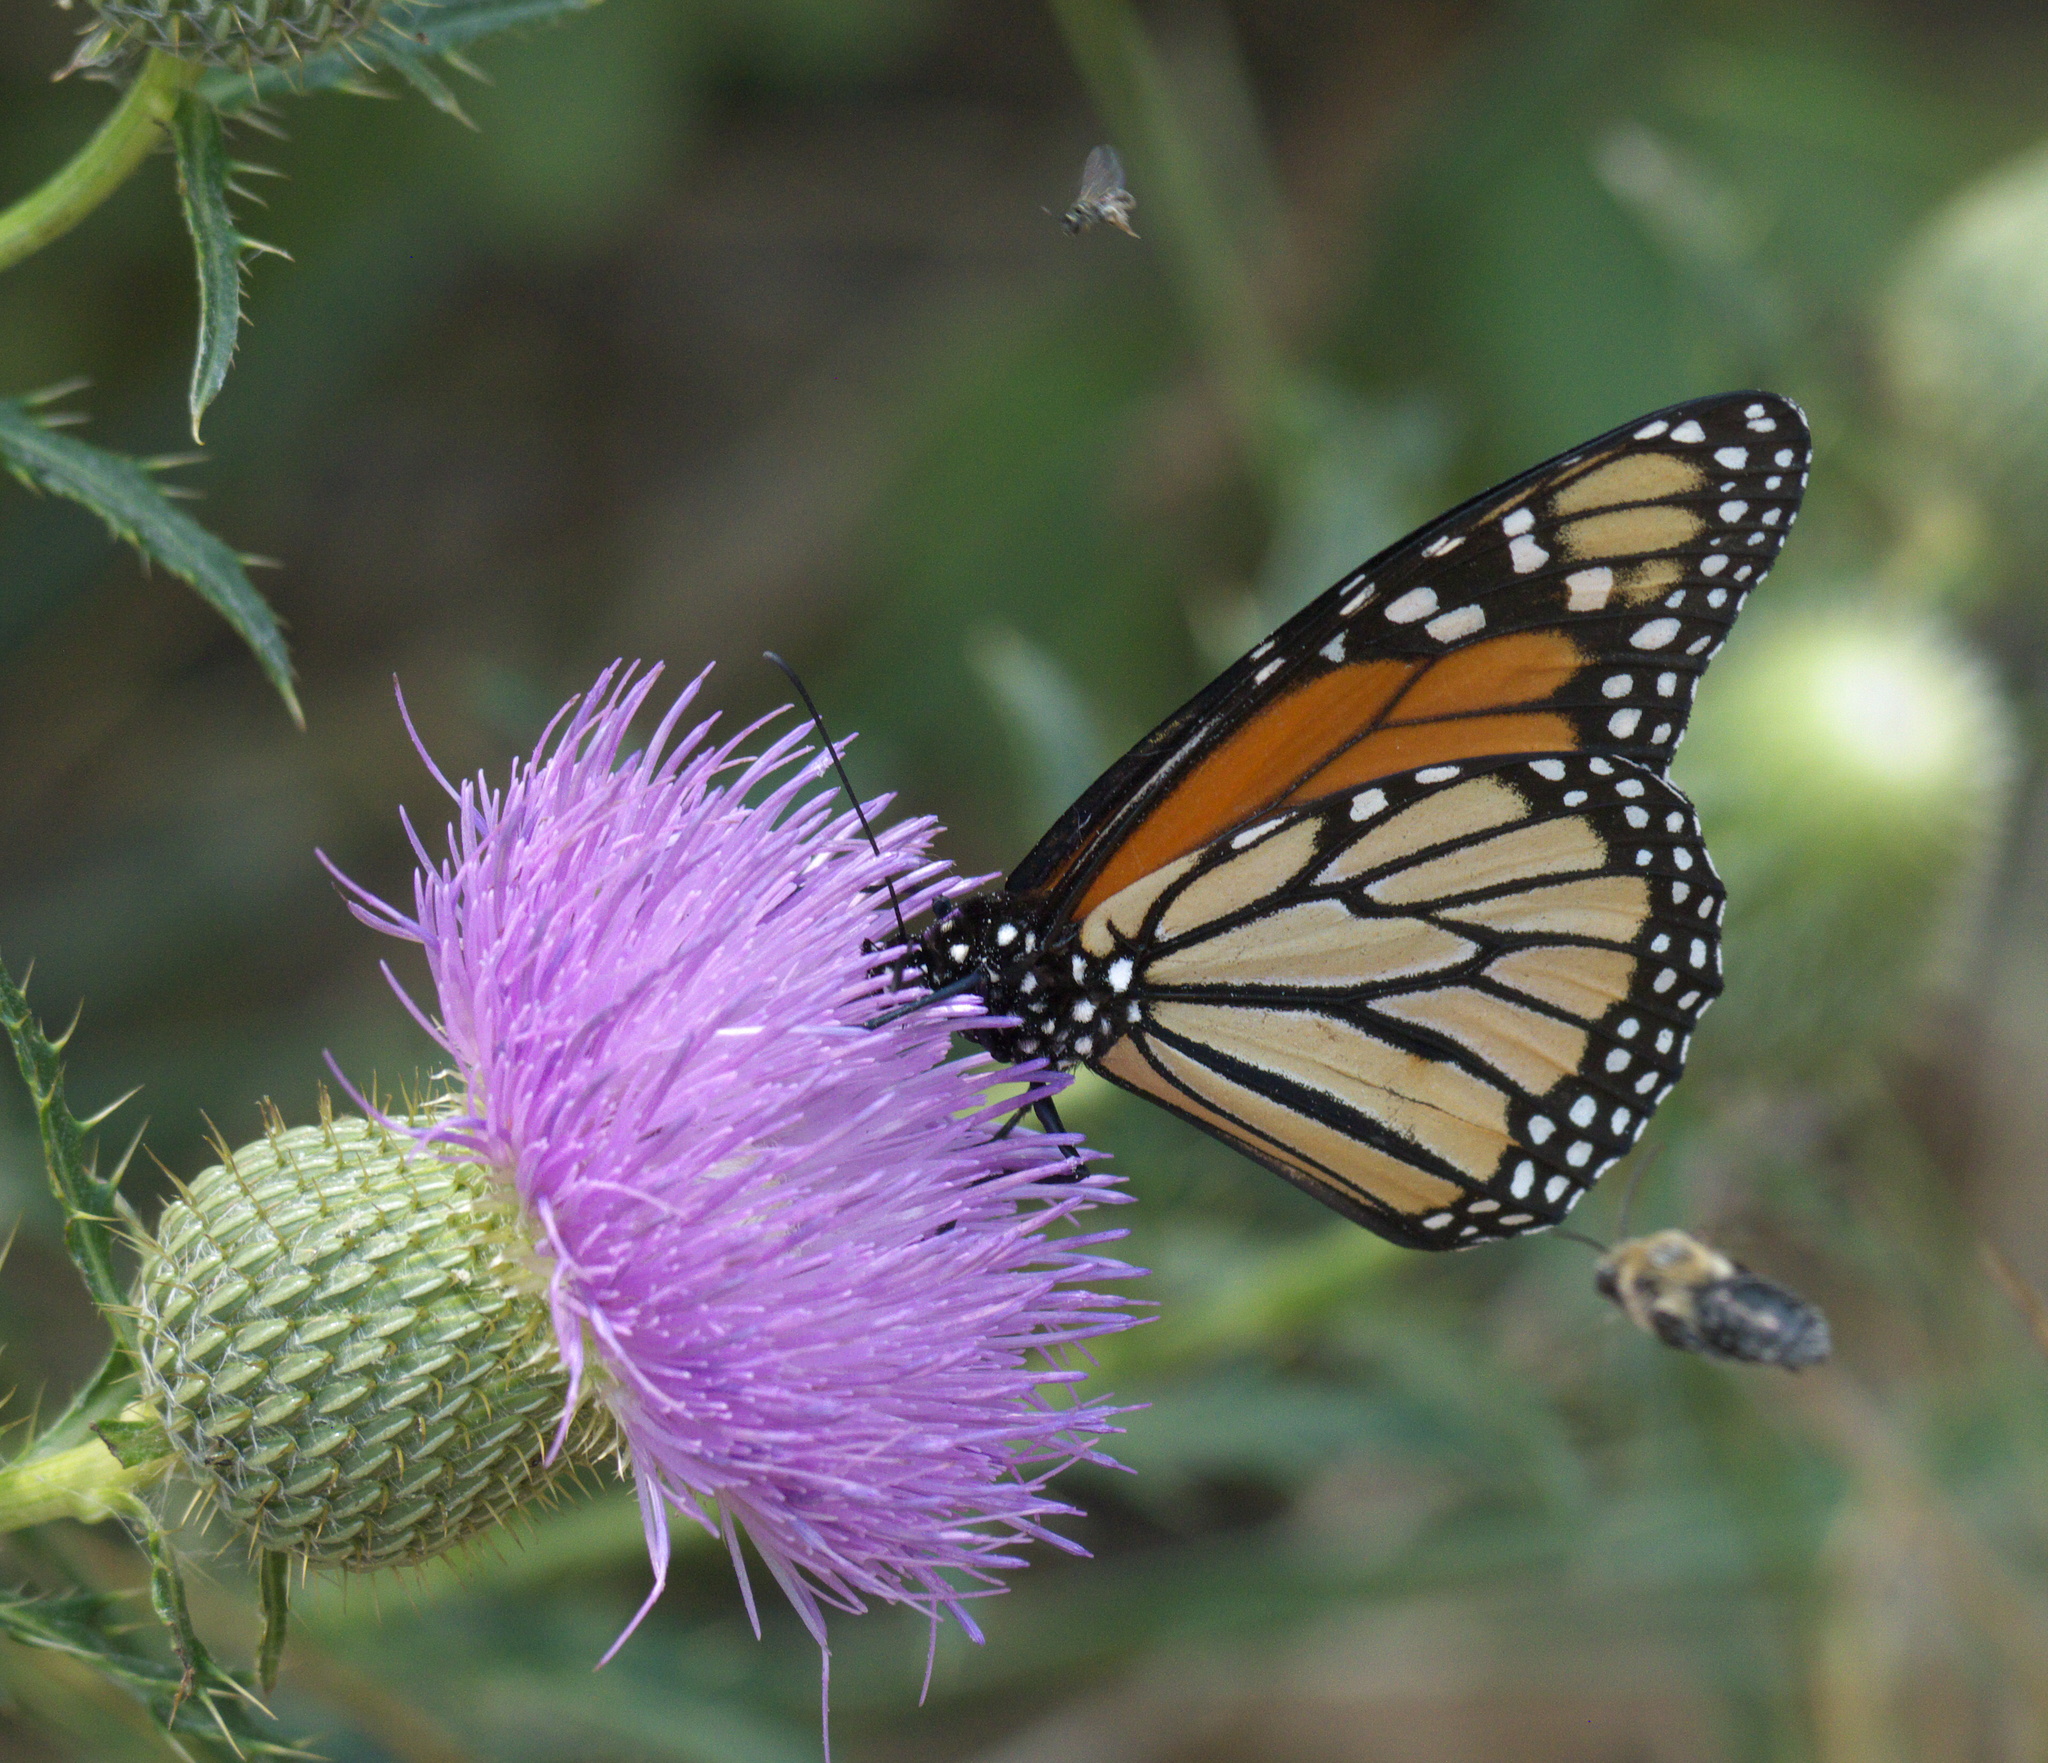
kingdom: Animalia
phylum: Arthropoda
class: Insecta
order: Lepidoptera
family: Nymphalidae
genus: Danaus
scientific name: Danaus plexippus
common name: Monarch
